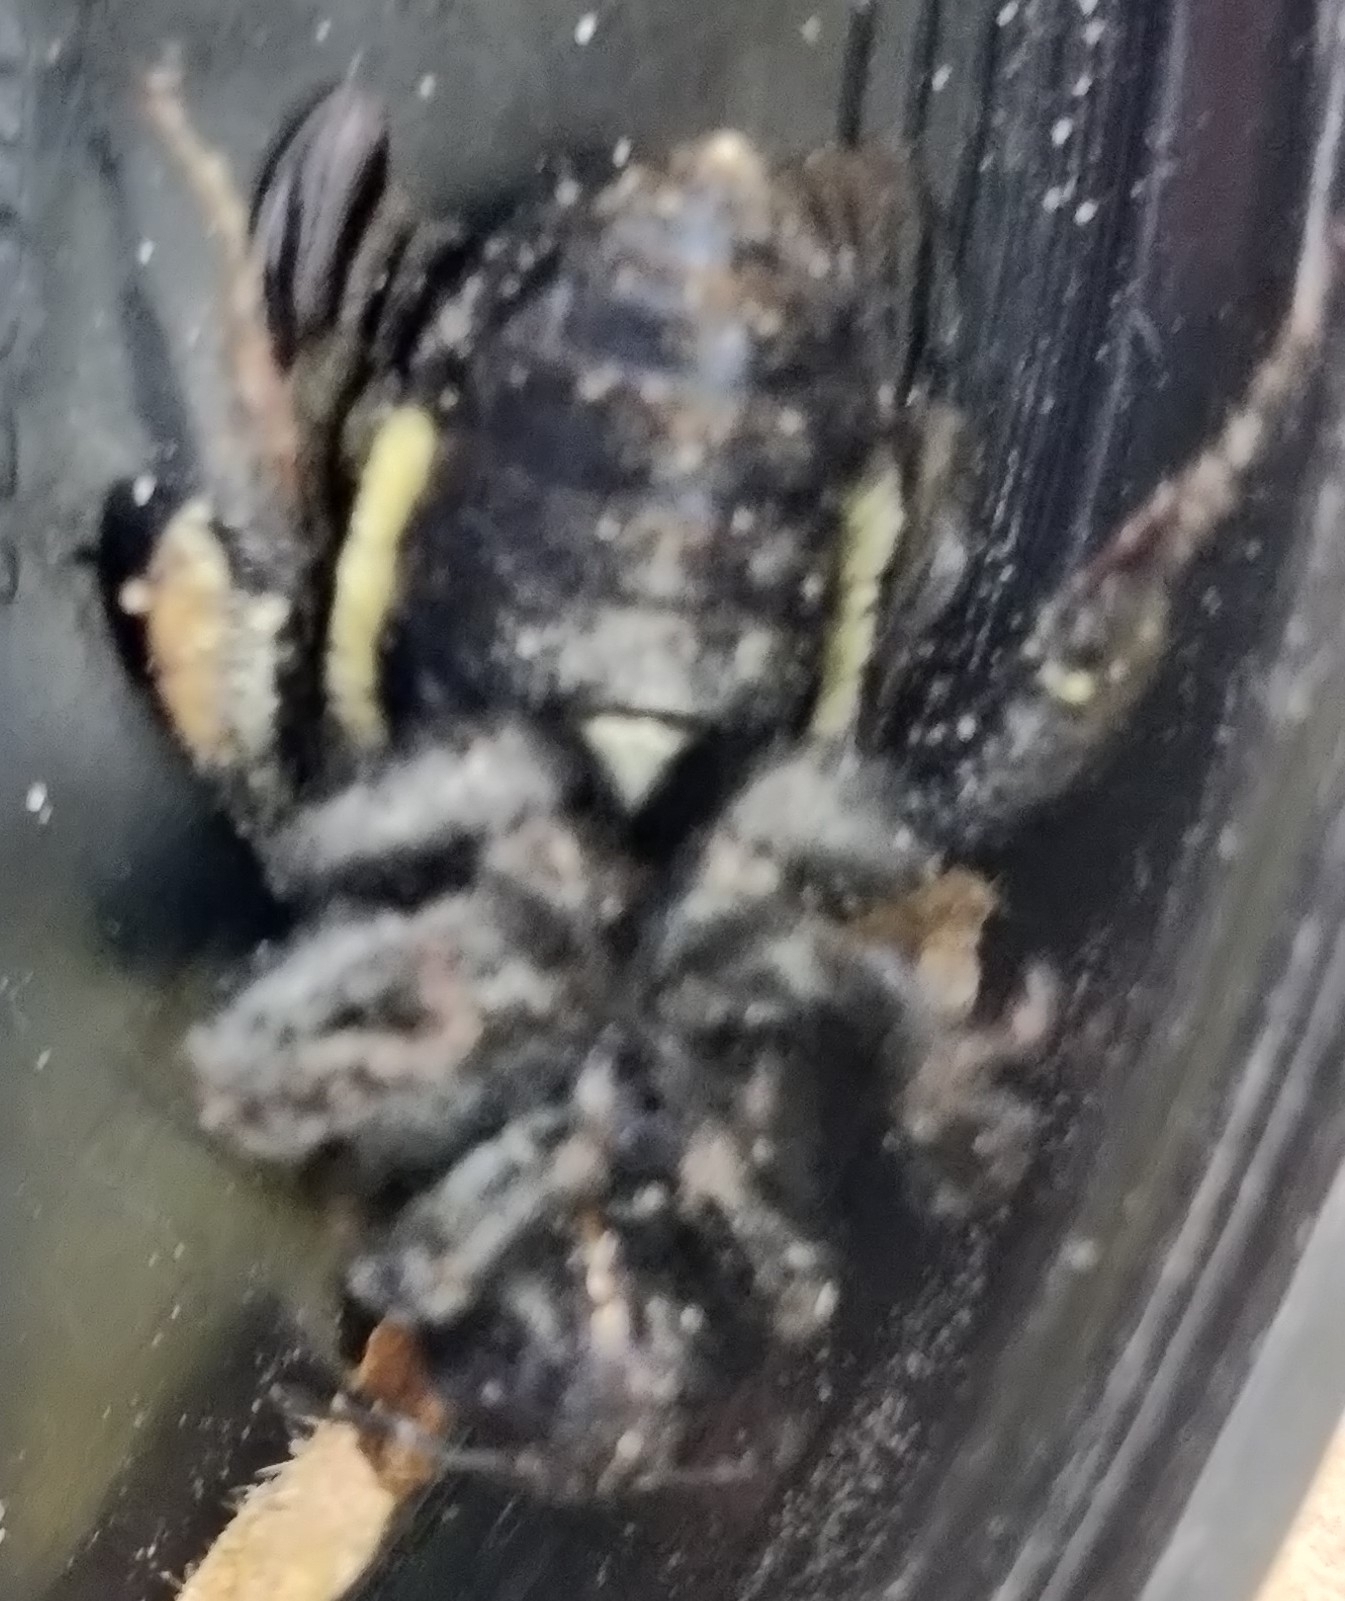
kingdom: Animalia
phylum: Arthropoda
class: Insecta
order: Hymenoptera
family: Apidae
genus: Bombus
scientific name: Bombus pensylvanicus
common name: Bumble bee
